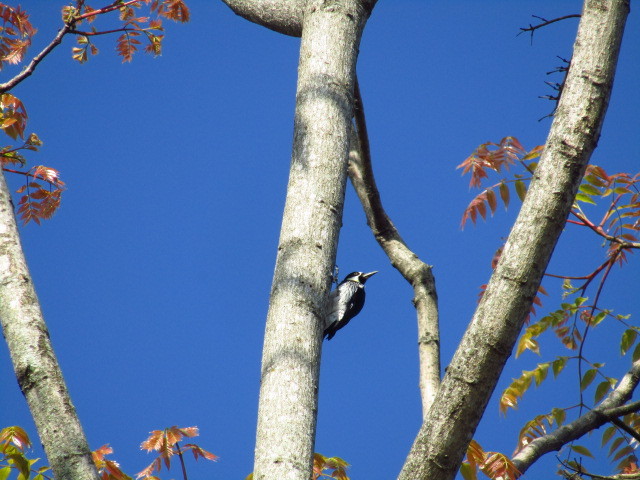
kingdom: Animalia
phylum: Chordata
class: Aves
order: Piciformes
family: Picidae
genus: Melanerpes
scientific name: Melanerpes formicivorus
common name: Acorn woodpecker
